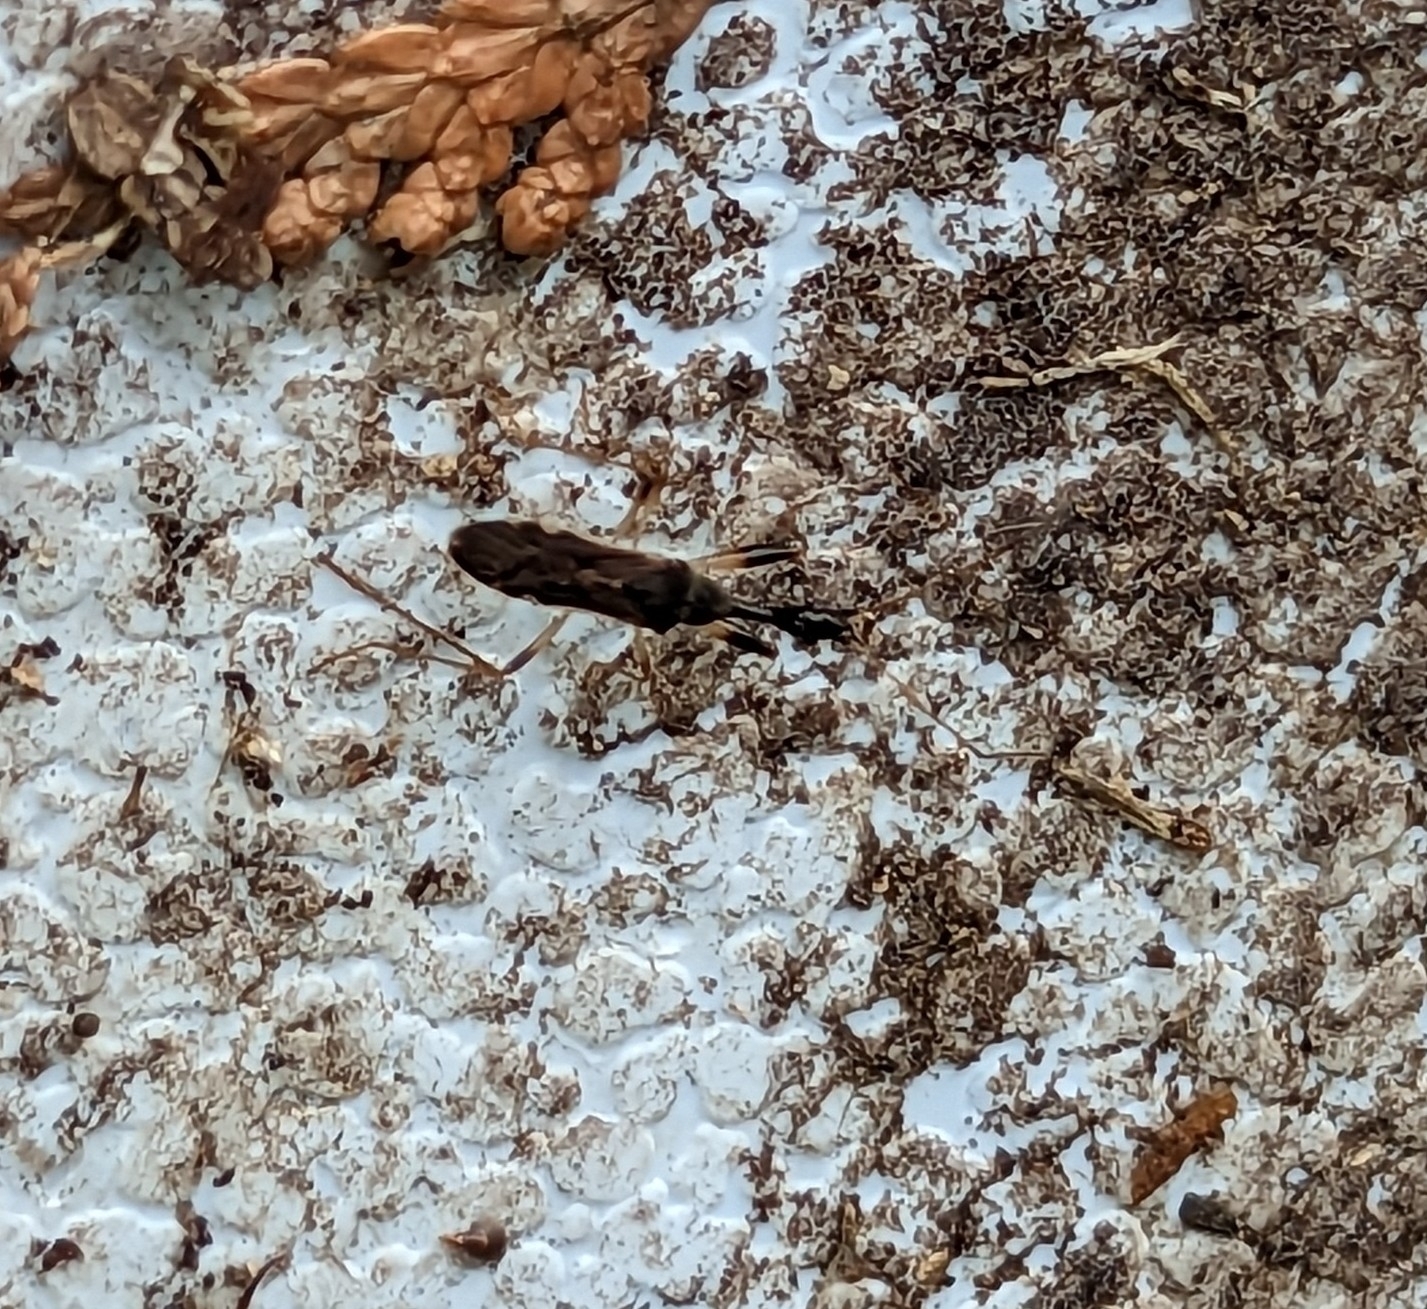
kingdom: Animalia
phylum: Arthropoda
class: Insecta
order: Hemiptera
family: Rhyparochromidae
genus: Myodocha
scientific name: Myodocha serripes
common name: Long-necked seed bug
